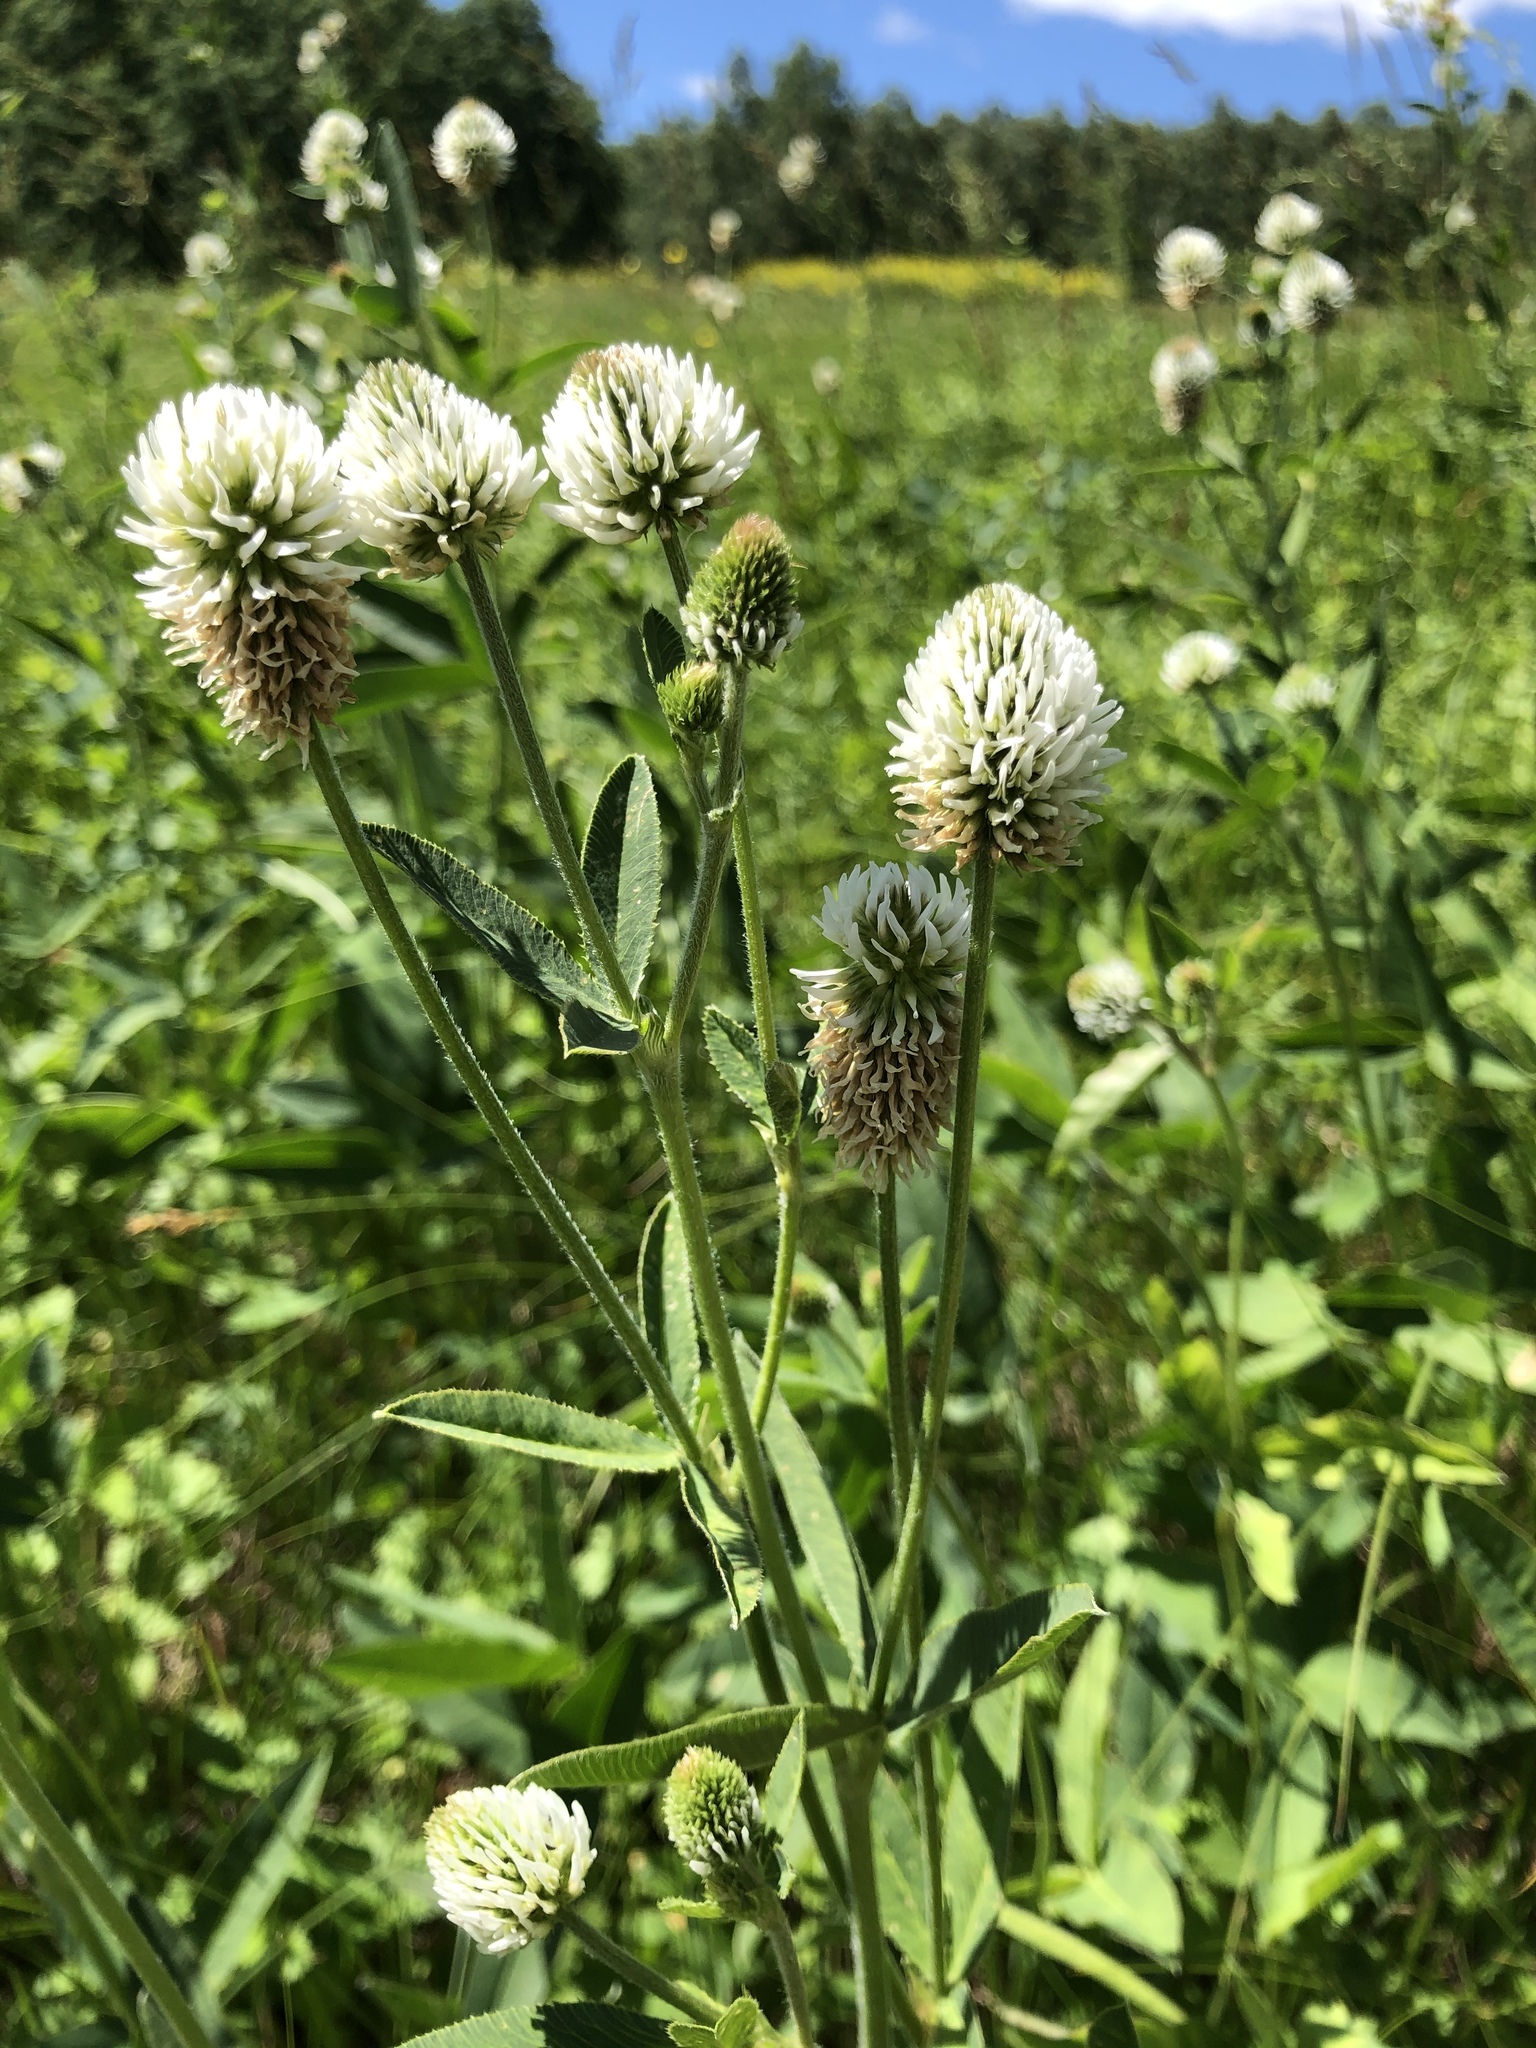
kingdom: Plantae
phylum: Tracheophyta
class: Magnoliopsida
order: Fabales
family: Fabaceae
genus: Trifolium
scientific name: Trifolium montanum
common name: Mountain clover
